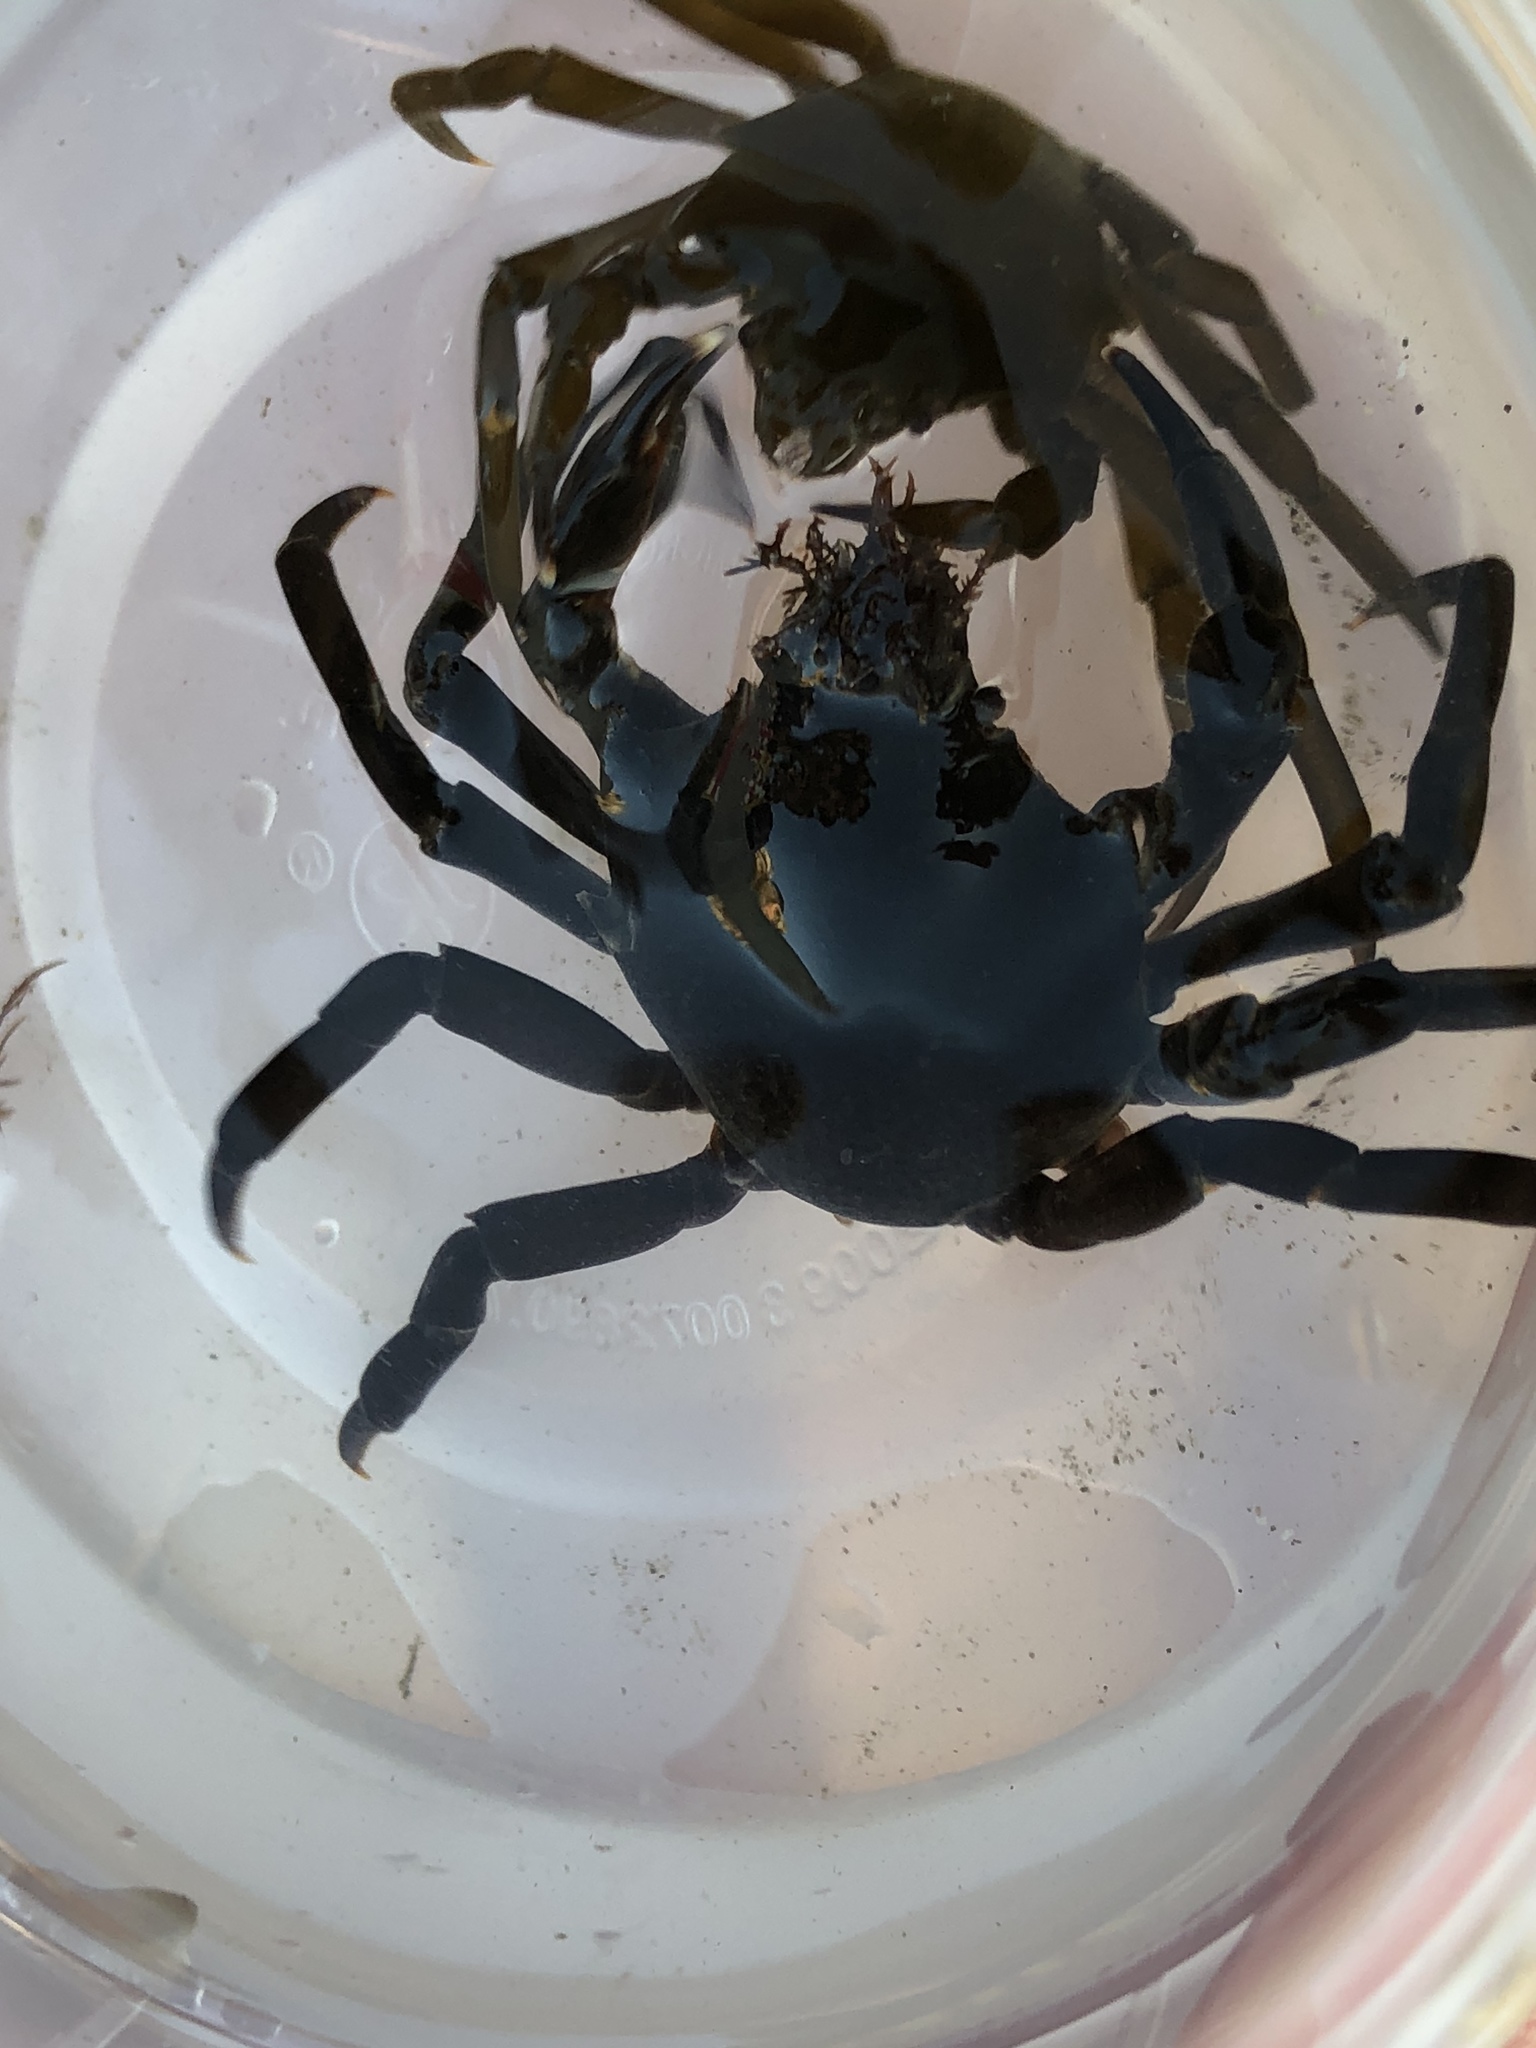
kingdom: Animalia
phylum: Arthropoda
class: Malacostraca
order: Decapoda
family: Epialtidae
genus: Pugettia
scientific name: Pugettia producta
